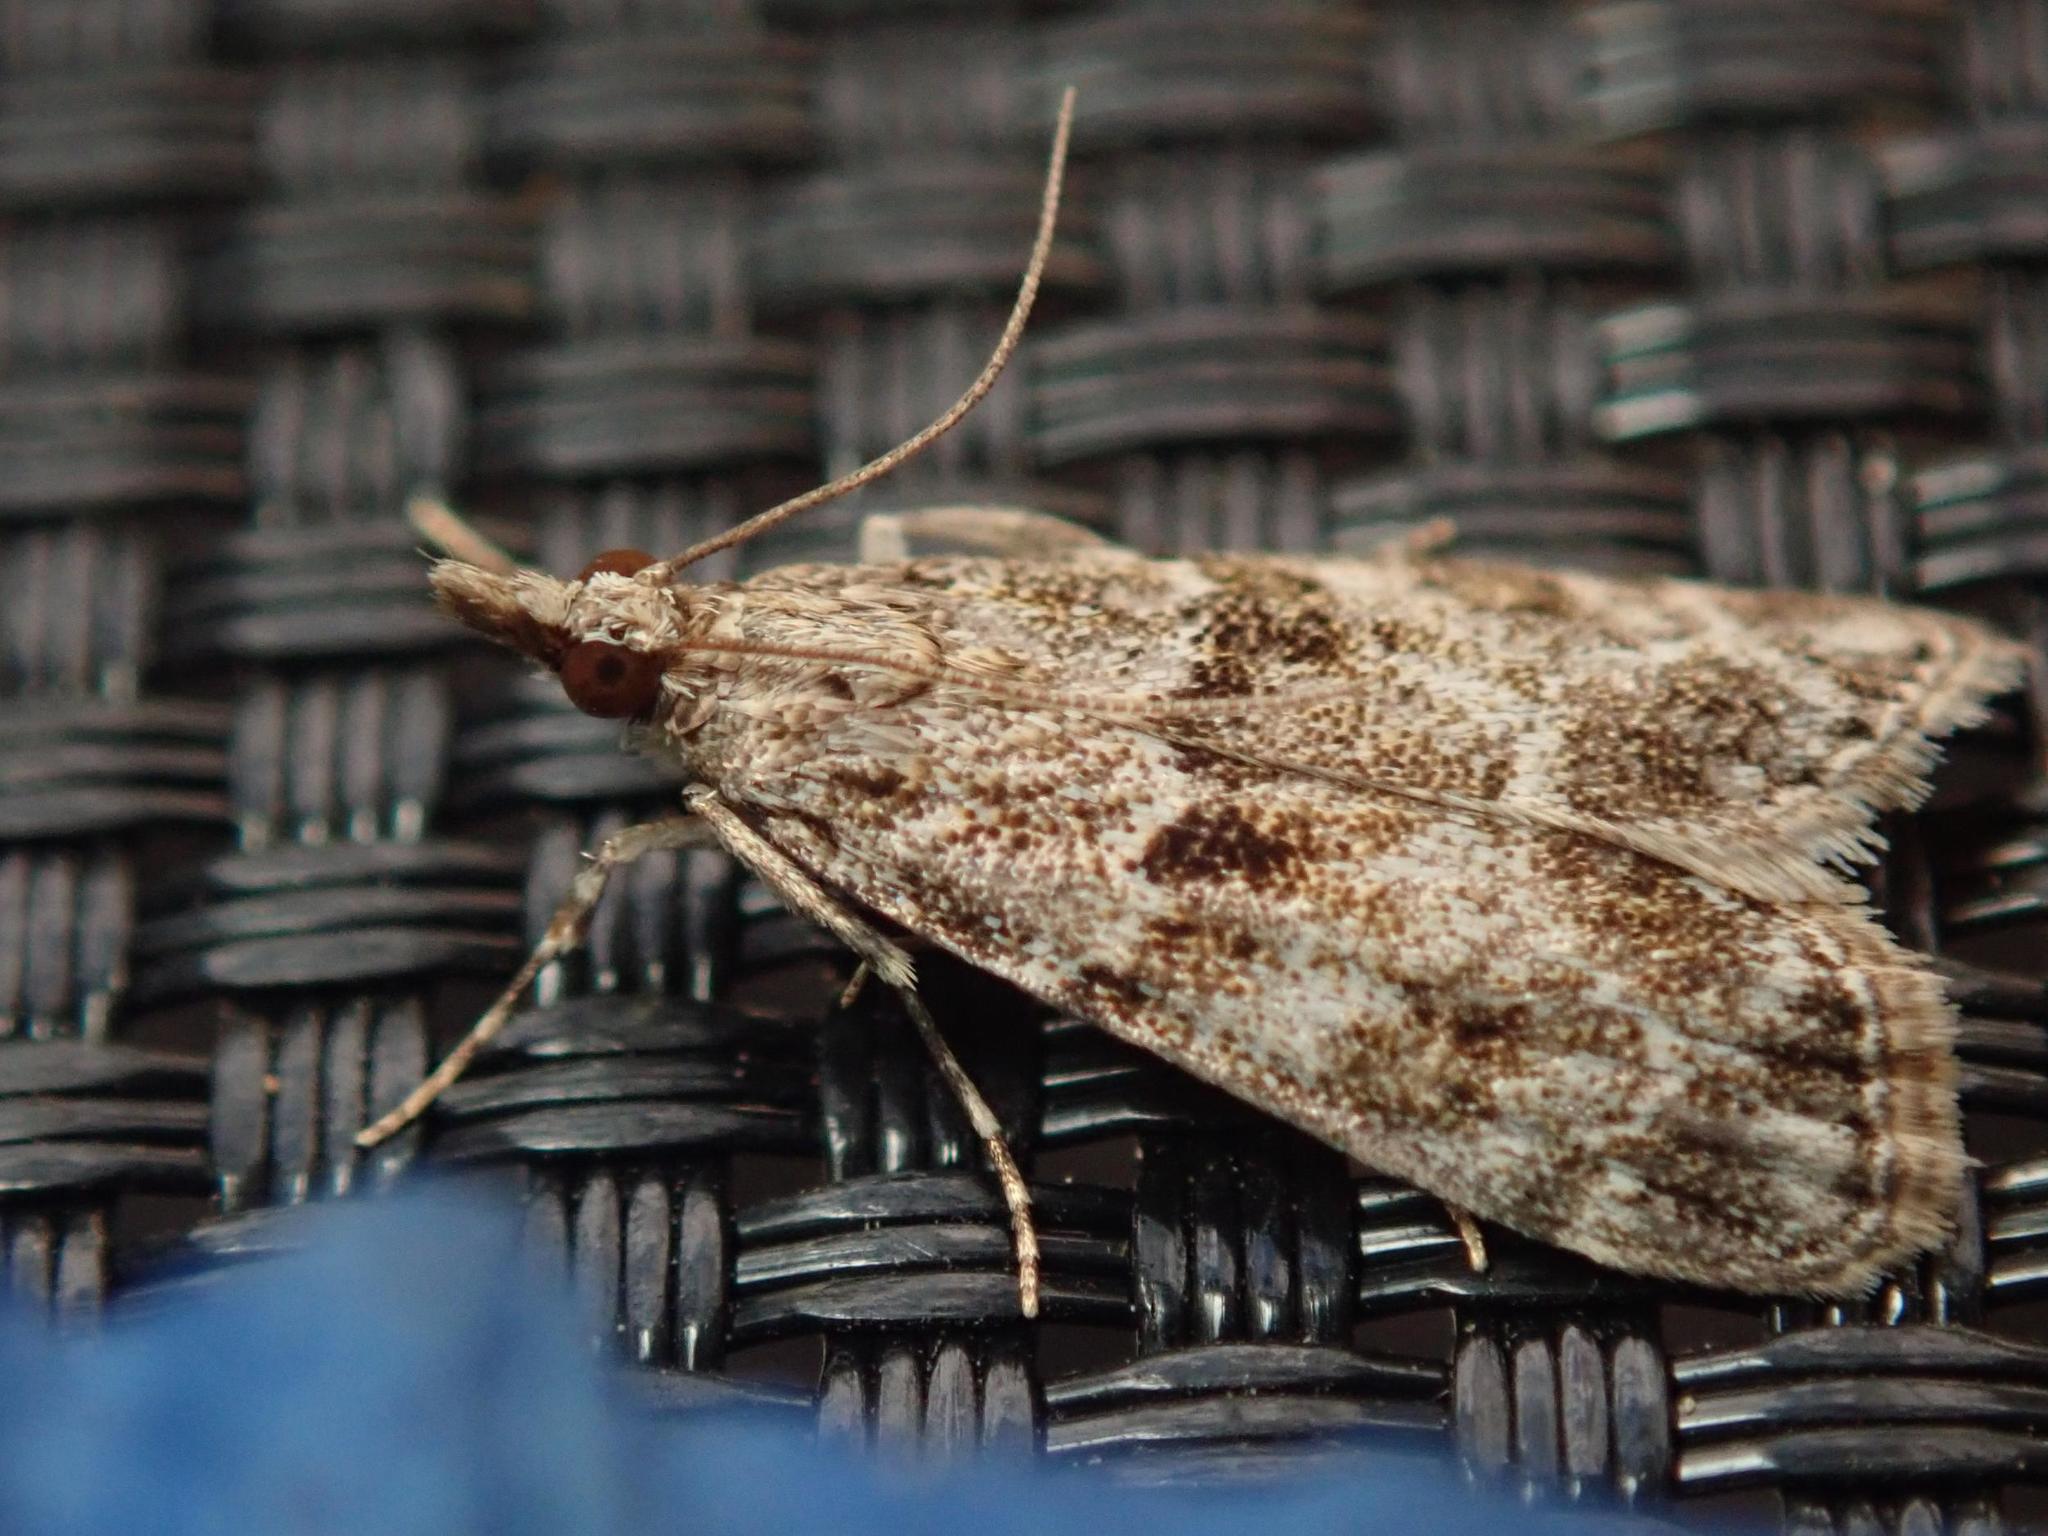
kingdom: Animalia
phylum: Arthropoda
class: Insecta
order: Lepidoptera
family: Crambidae
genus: Eudonia
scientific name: Eudonia lacustrata
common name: Little grey
